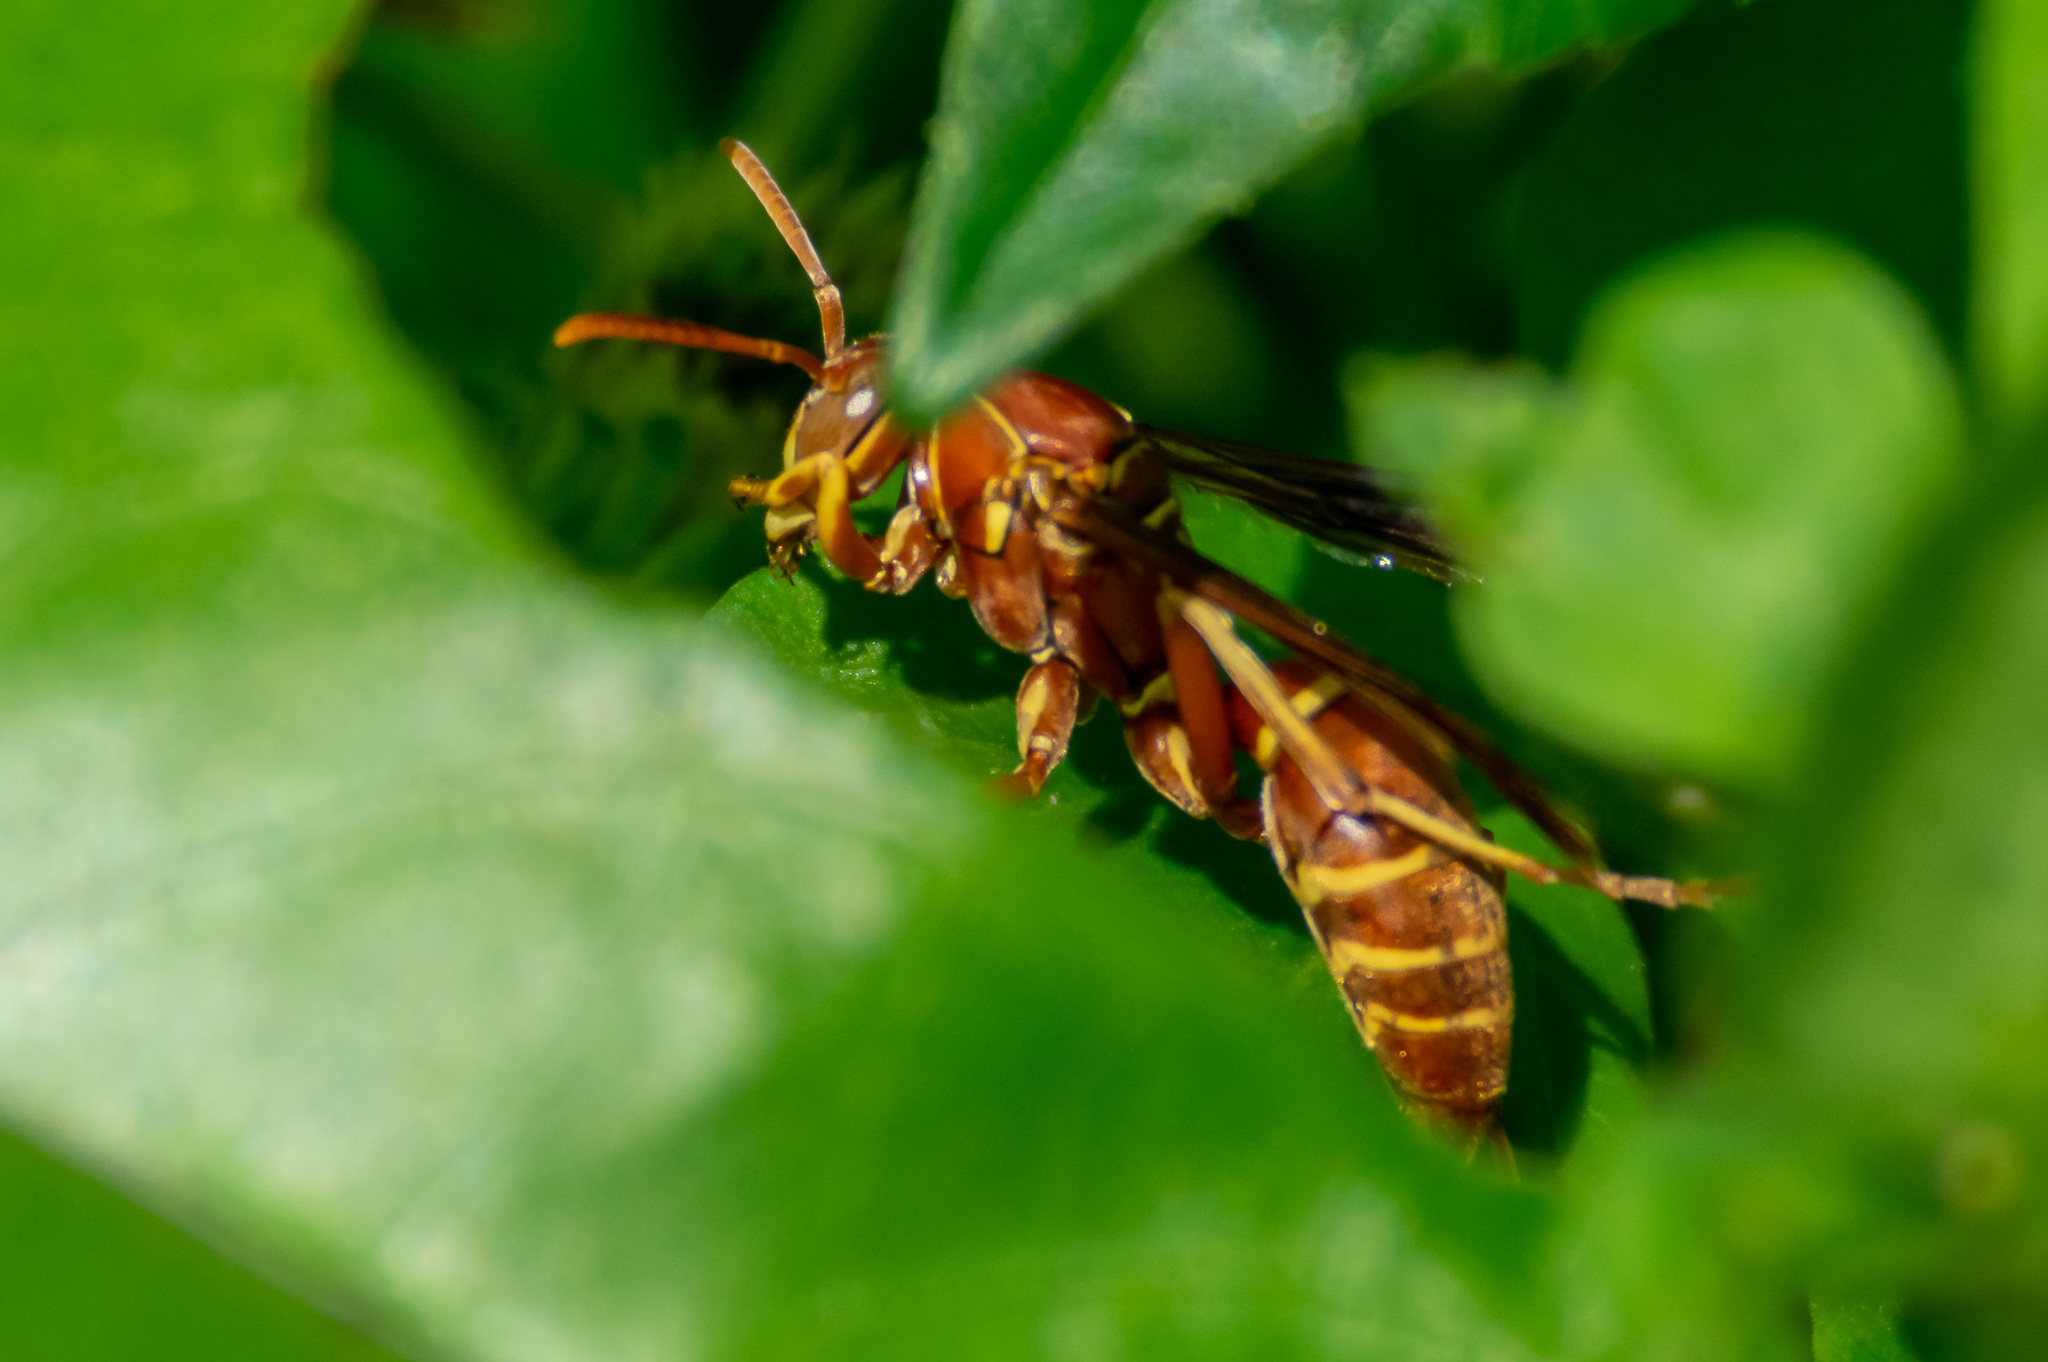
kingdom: Animalia
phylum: Arthropoda
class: Insecta
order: Hymenoptera
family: Eumenidae
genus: Polistes
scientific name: Polistes bellicosus
